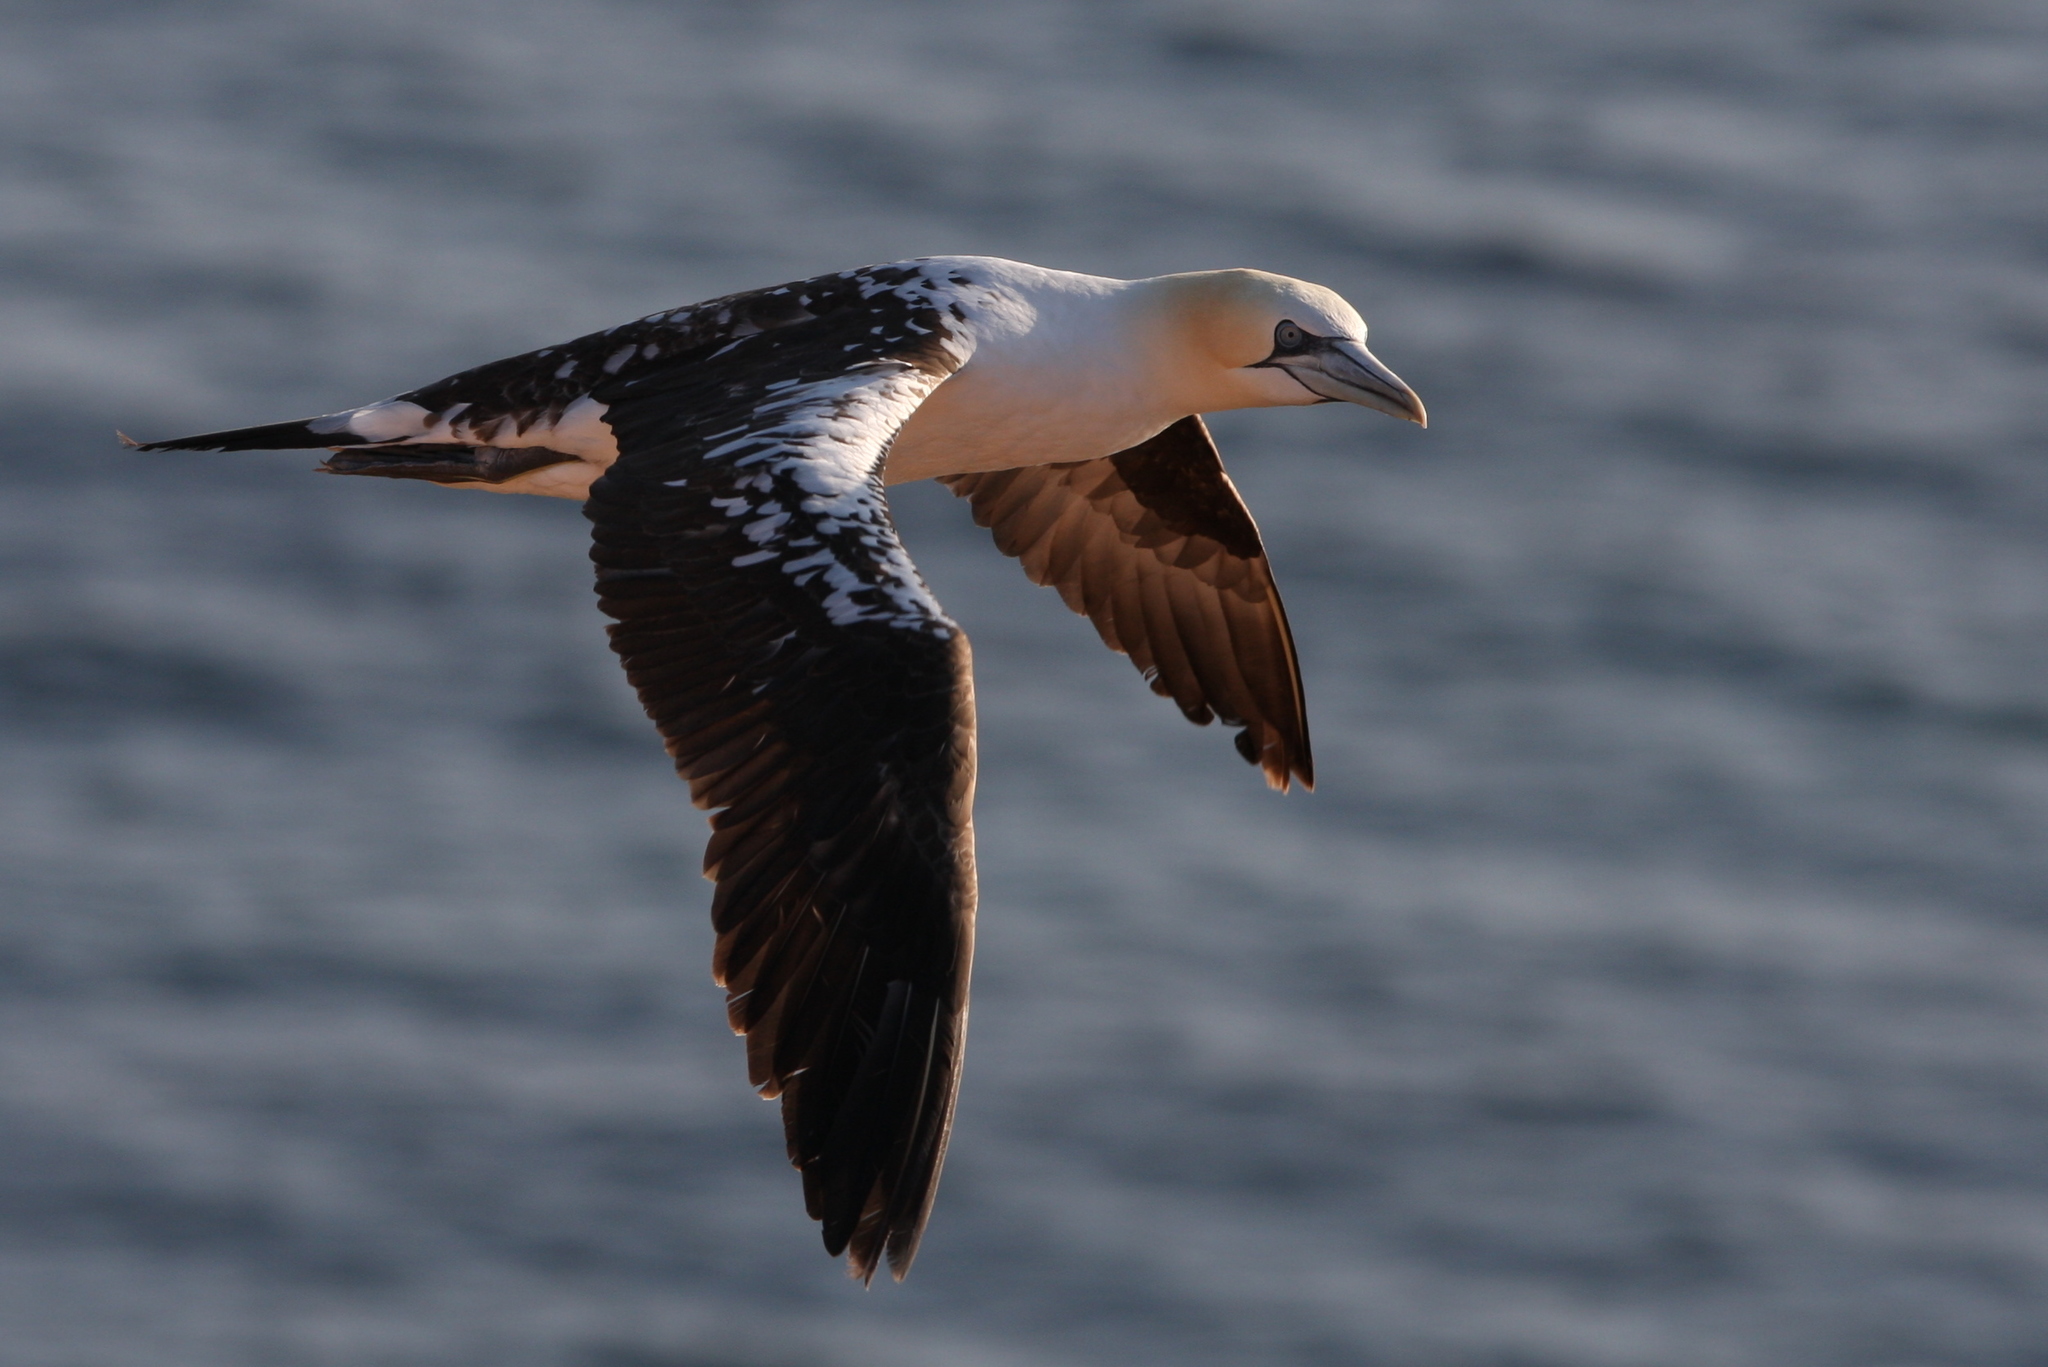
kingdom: Animalia
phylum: Chordata
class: Aves
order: Suliformes
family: Sulidae
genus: Morus
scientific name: Morus bassanus
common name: Northern gannet
